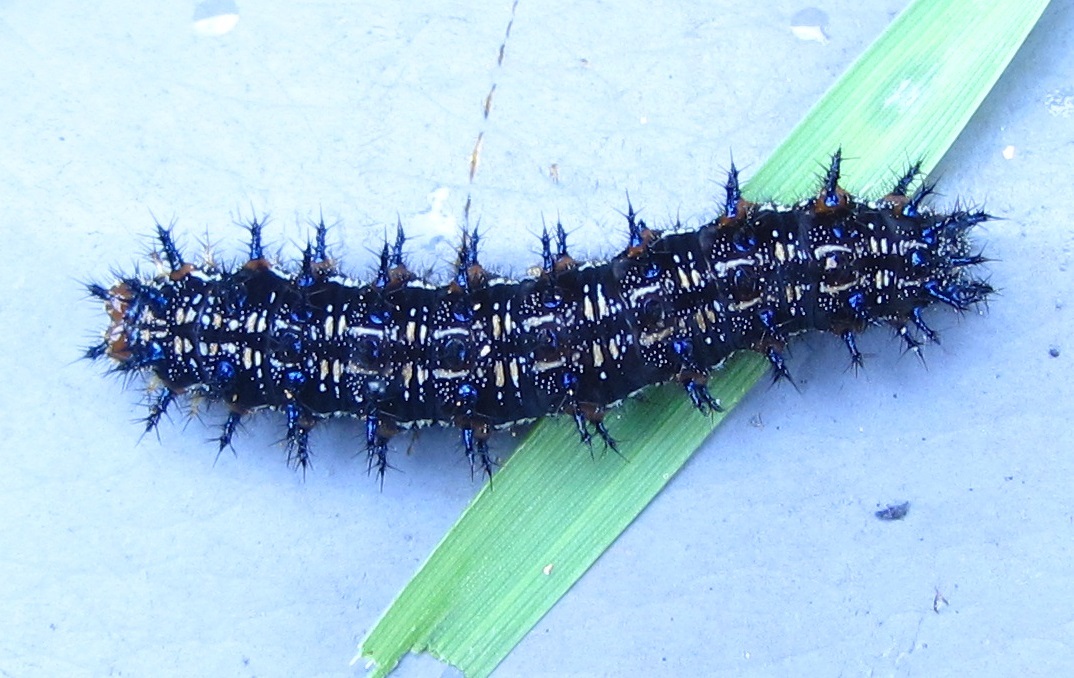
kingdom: Animalia
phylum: Arthropoda
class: Insecta
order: Lepidoptera
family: Nymphalidae
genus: Junonia
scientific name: Junonia coenia
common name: Common buckeye
